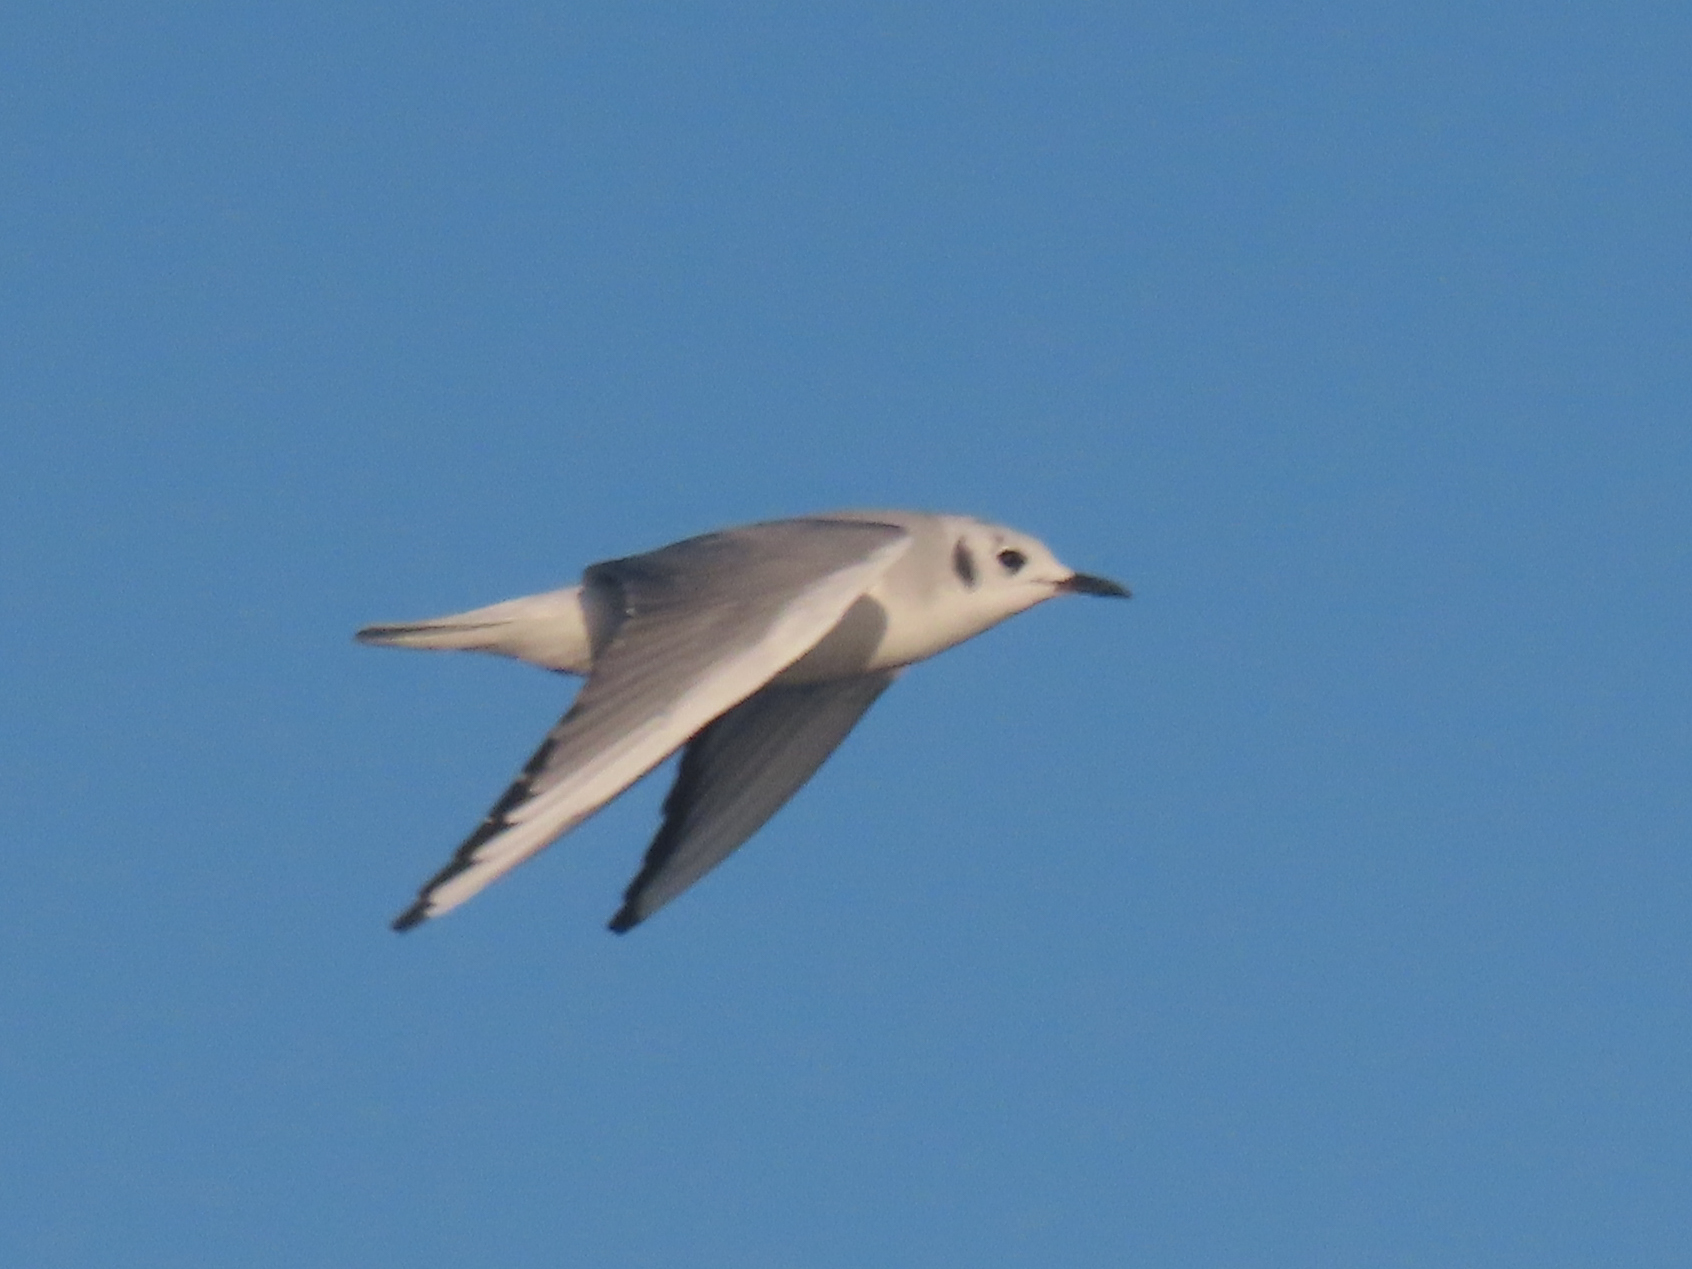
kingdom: Animalia
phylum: Chordata
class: Aves
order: Charadriiformes
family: Laridae
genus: Chroicocephalus
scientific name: Chroicocephalus philadelphia
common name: Bonaparte's gull
